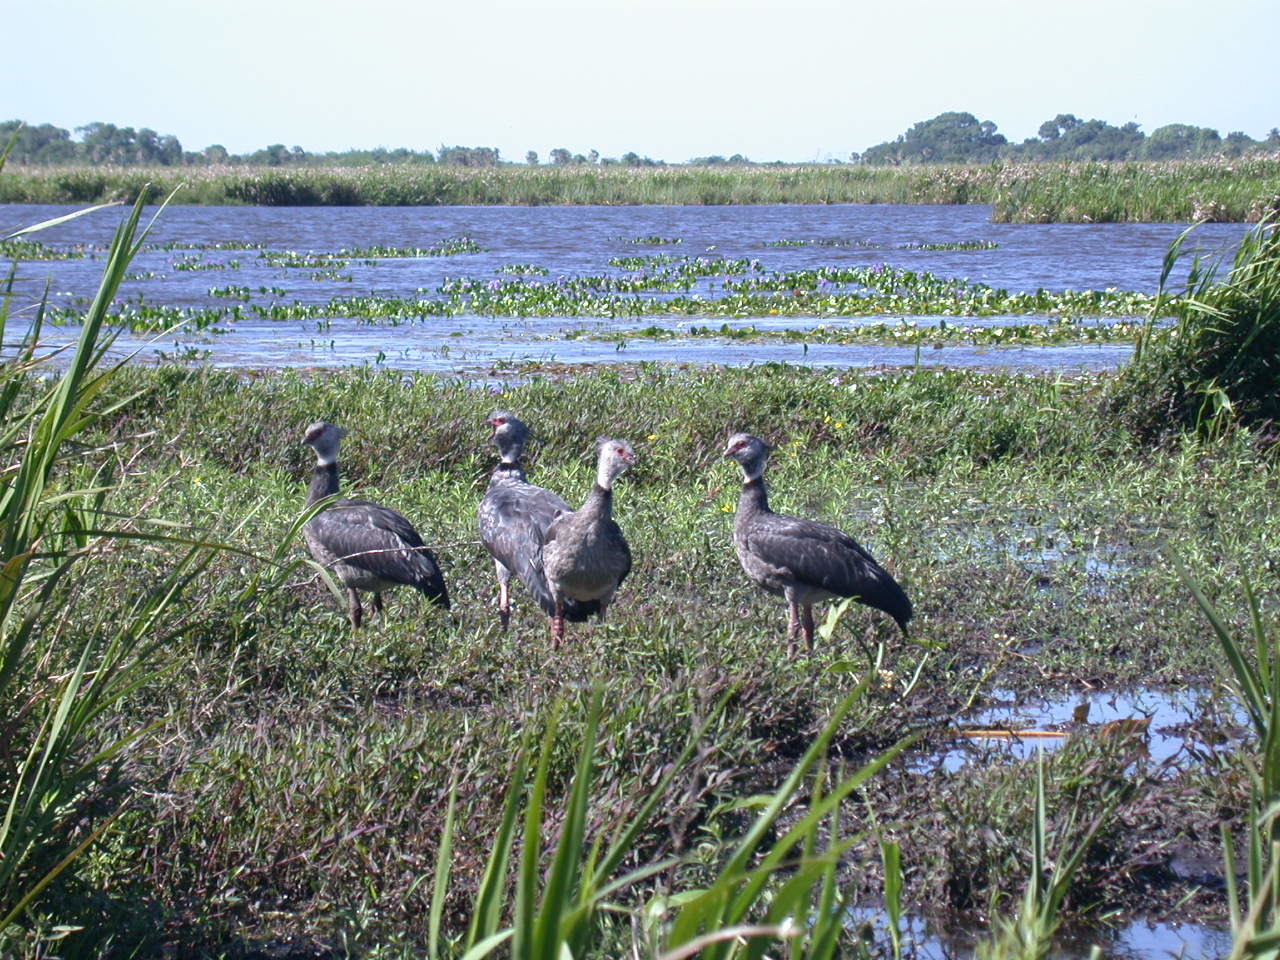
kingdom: Animalia
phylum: Chordata
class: Aves
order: Anseriformes
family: Anhimidae
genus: Chauna
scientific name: Chauna torquata
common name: Southern screamer
